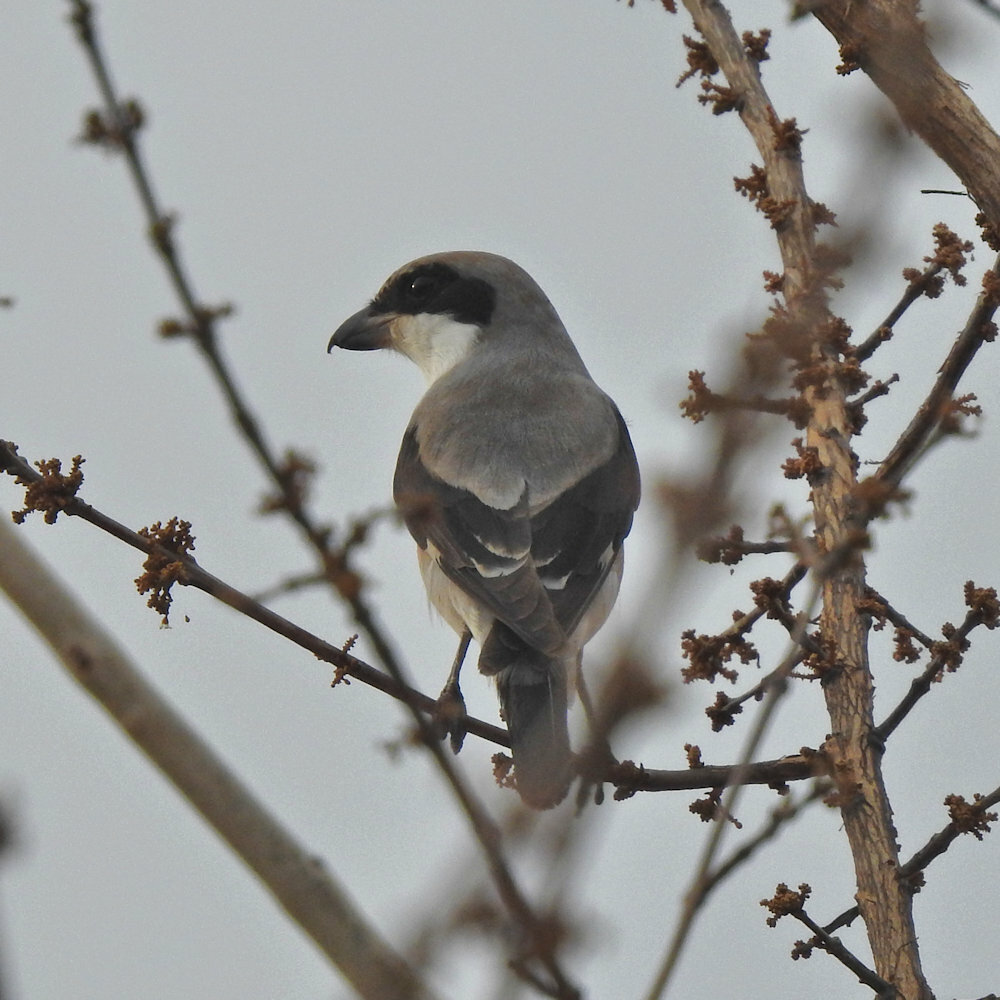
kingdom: Animalia
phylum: Chordata
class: Aves
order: Passeriformes
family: Laniidae
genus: Lanius
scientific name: Lanius minor
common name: Lesser grey shrike
